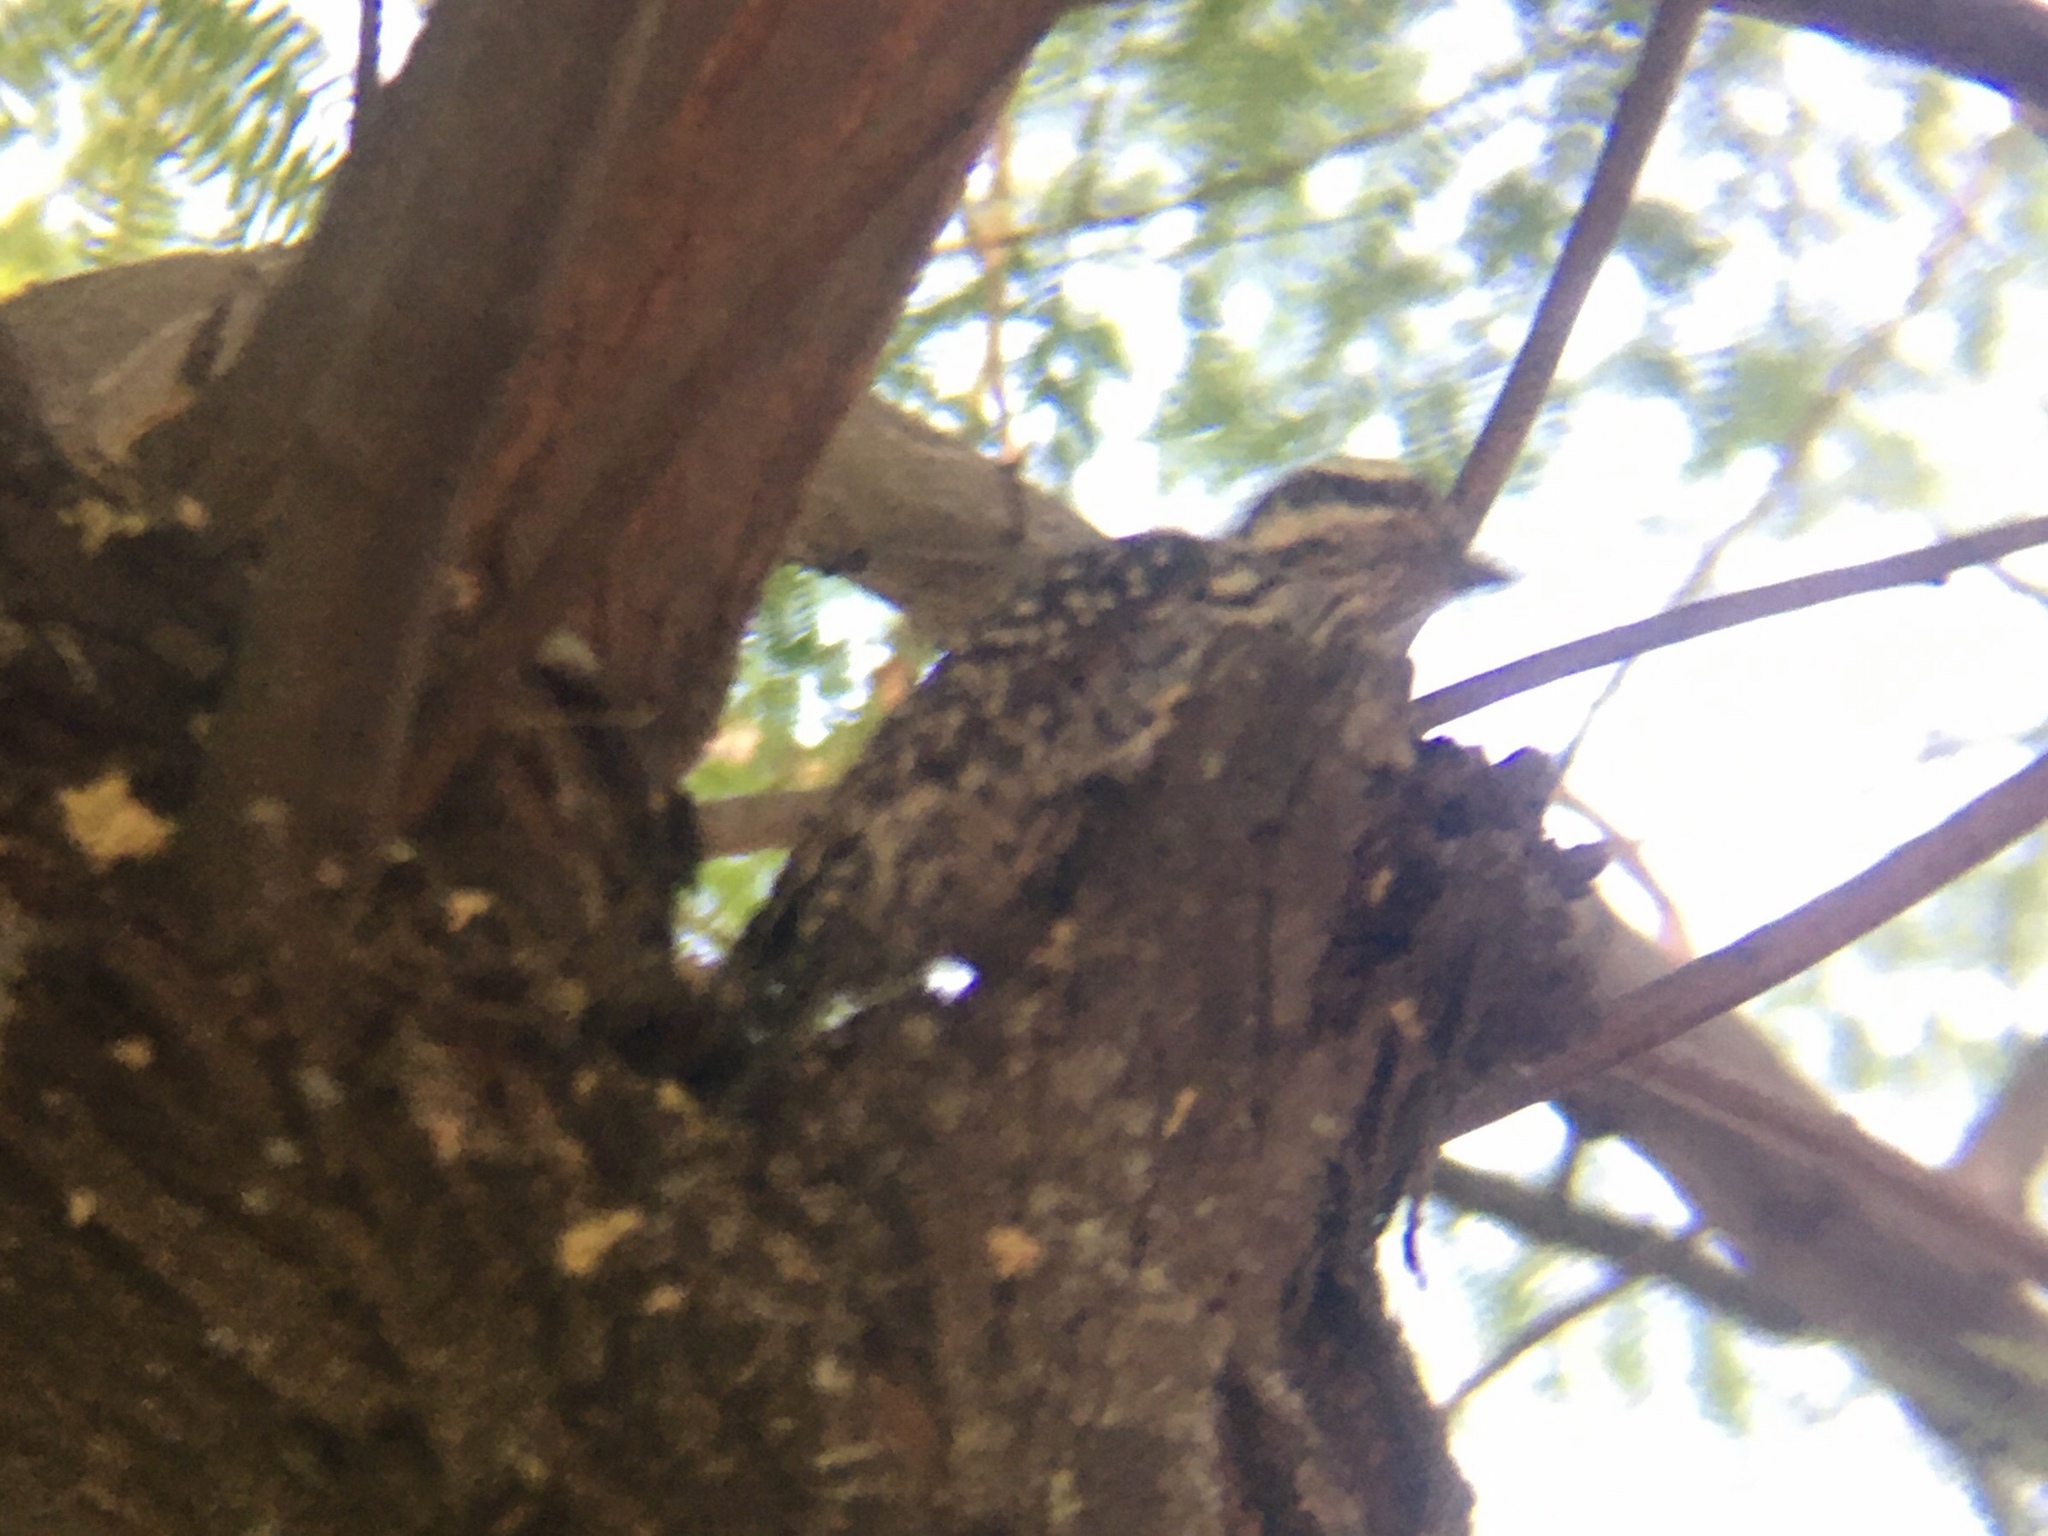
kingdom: Animalia
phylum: Chordata
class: Aves
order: Piciformes
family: Picidae
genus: Veniliornis
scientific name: Veniliornis mixtus
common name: Checkered woodpecker
